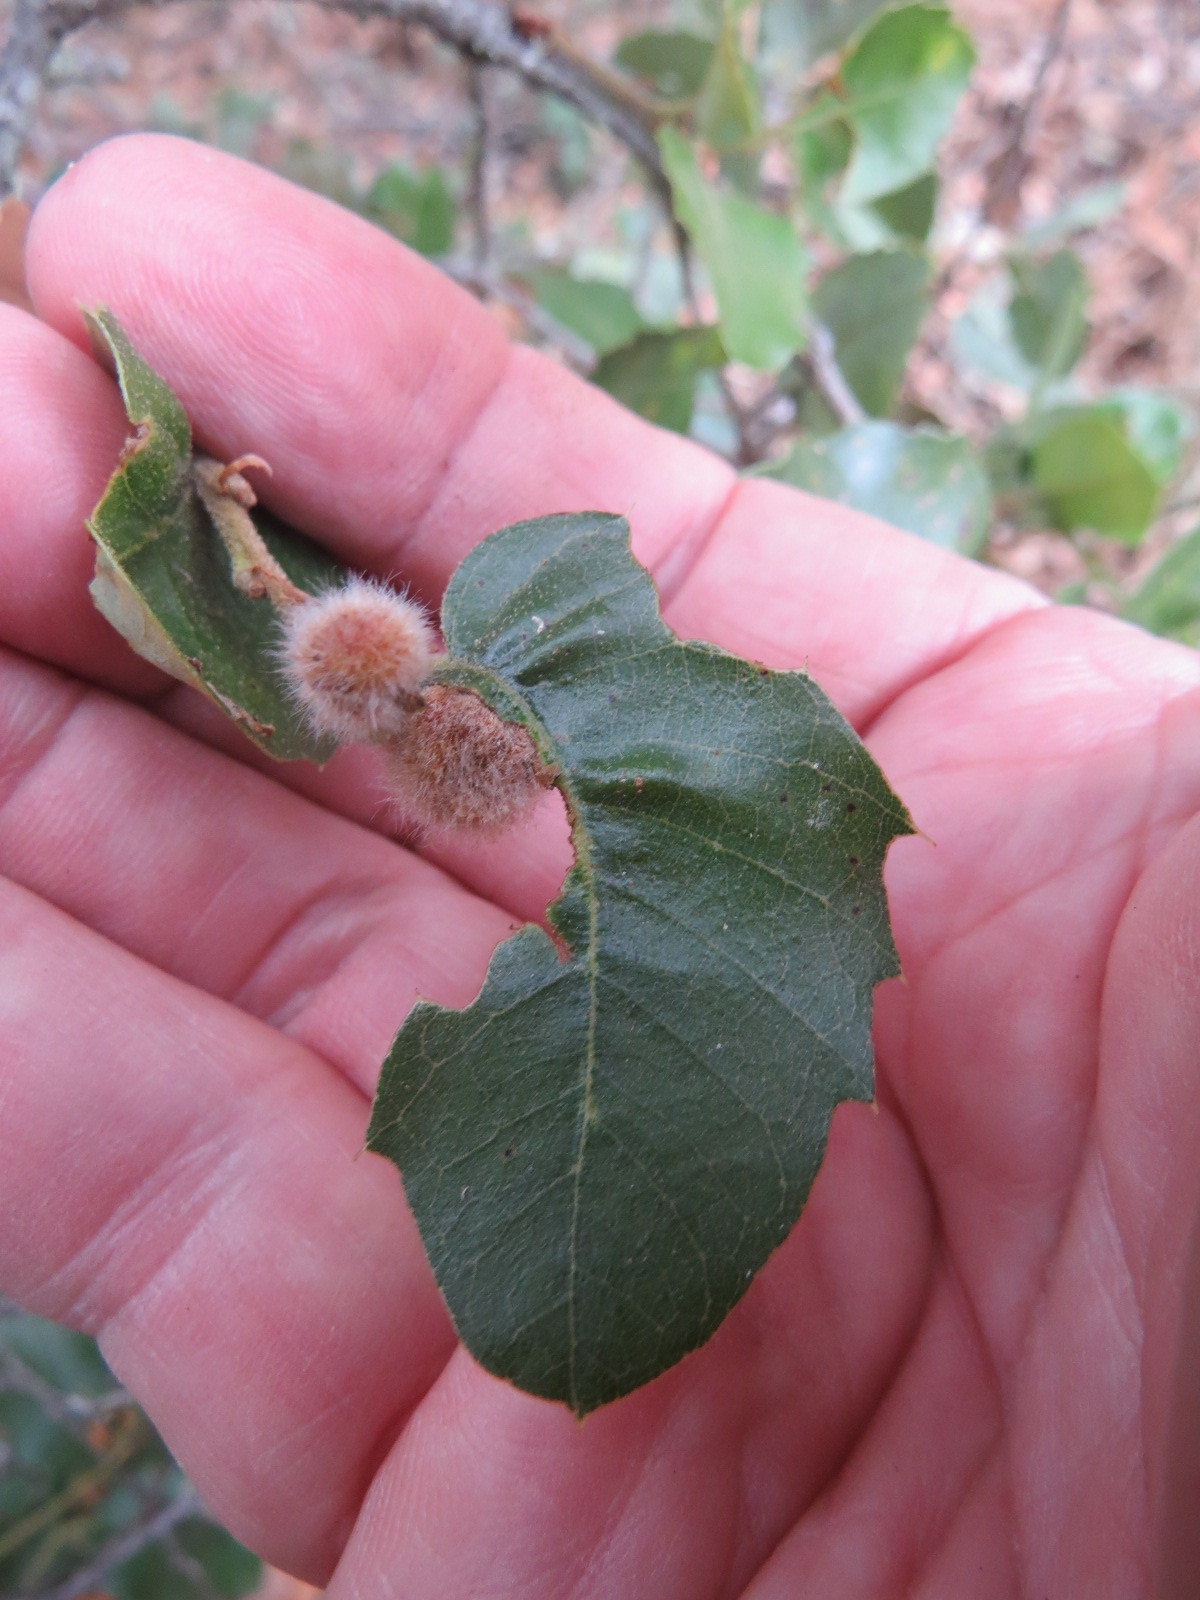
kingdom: Animalia
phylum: Arthropoda
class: Insecta
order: Hymenoptera
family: Cynipidae
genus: Disholandricus
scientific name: Disholandricus
